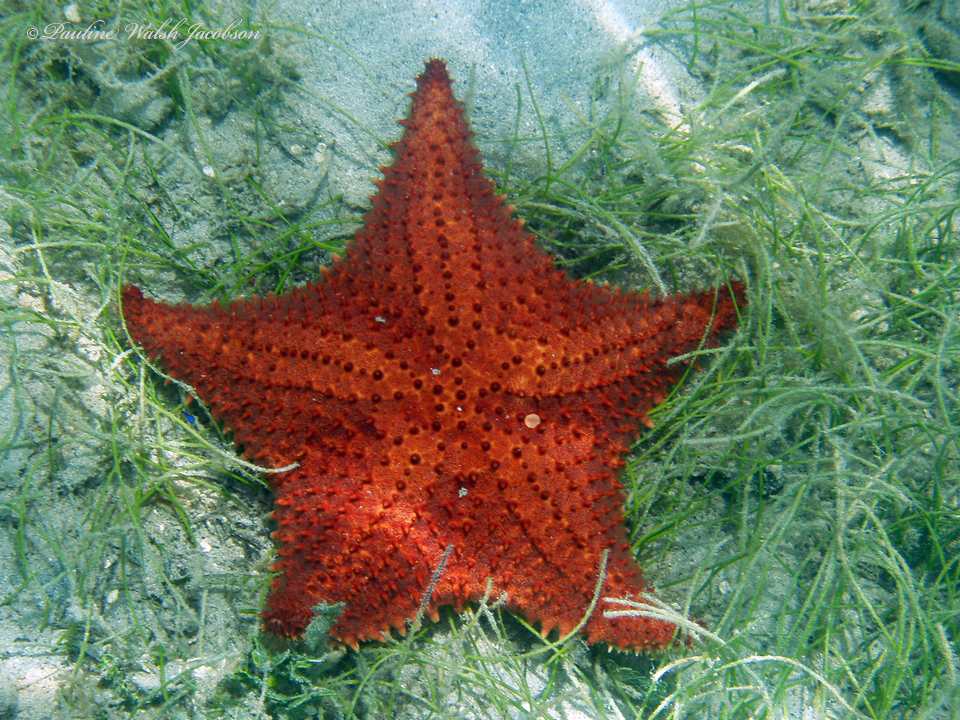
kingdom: Animalia
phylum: Echinodermata
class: Asteroidea
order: Valvatida
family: Oreasteridae
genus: Oreaster
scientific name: Oreaster reticulatus
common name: Cushion sea star
